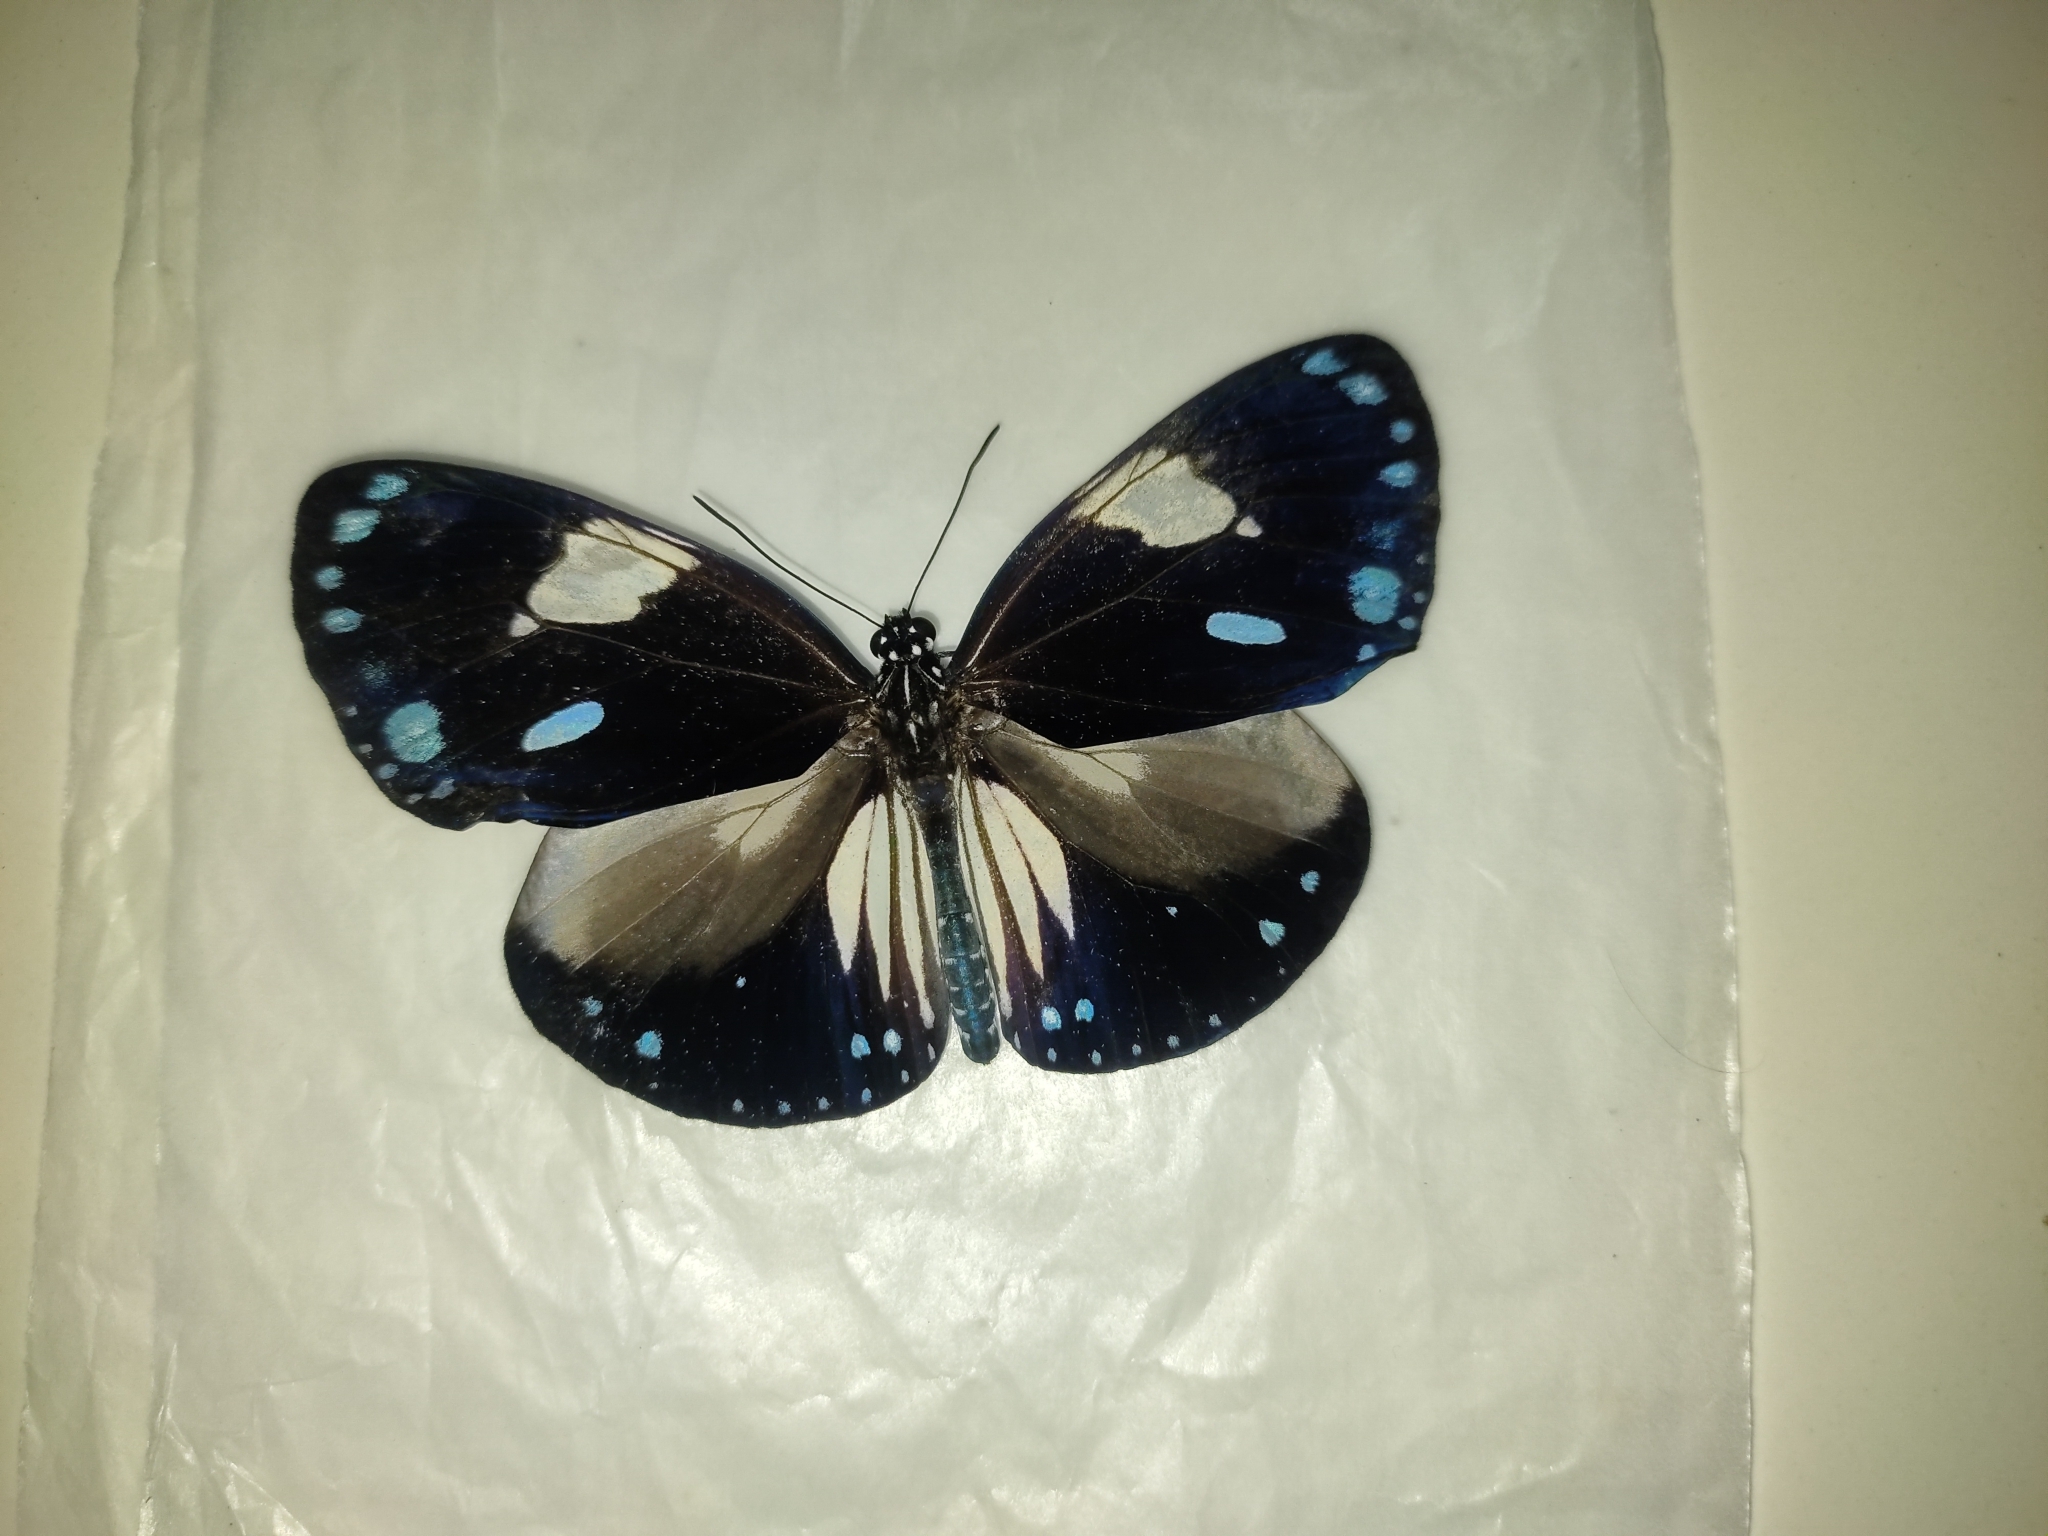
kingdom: Animalia
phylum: Arthropoda
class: Insecta
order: Lepidoptera
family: Nymphalidae
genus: Euploea
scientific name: Euploea radamanthus
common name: Magpie crow butterfly
